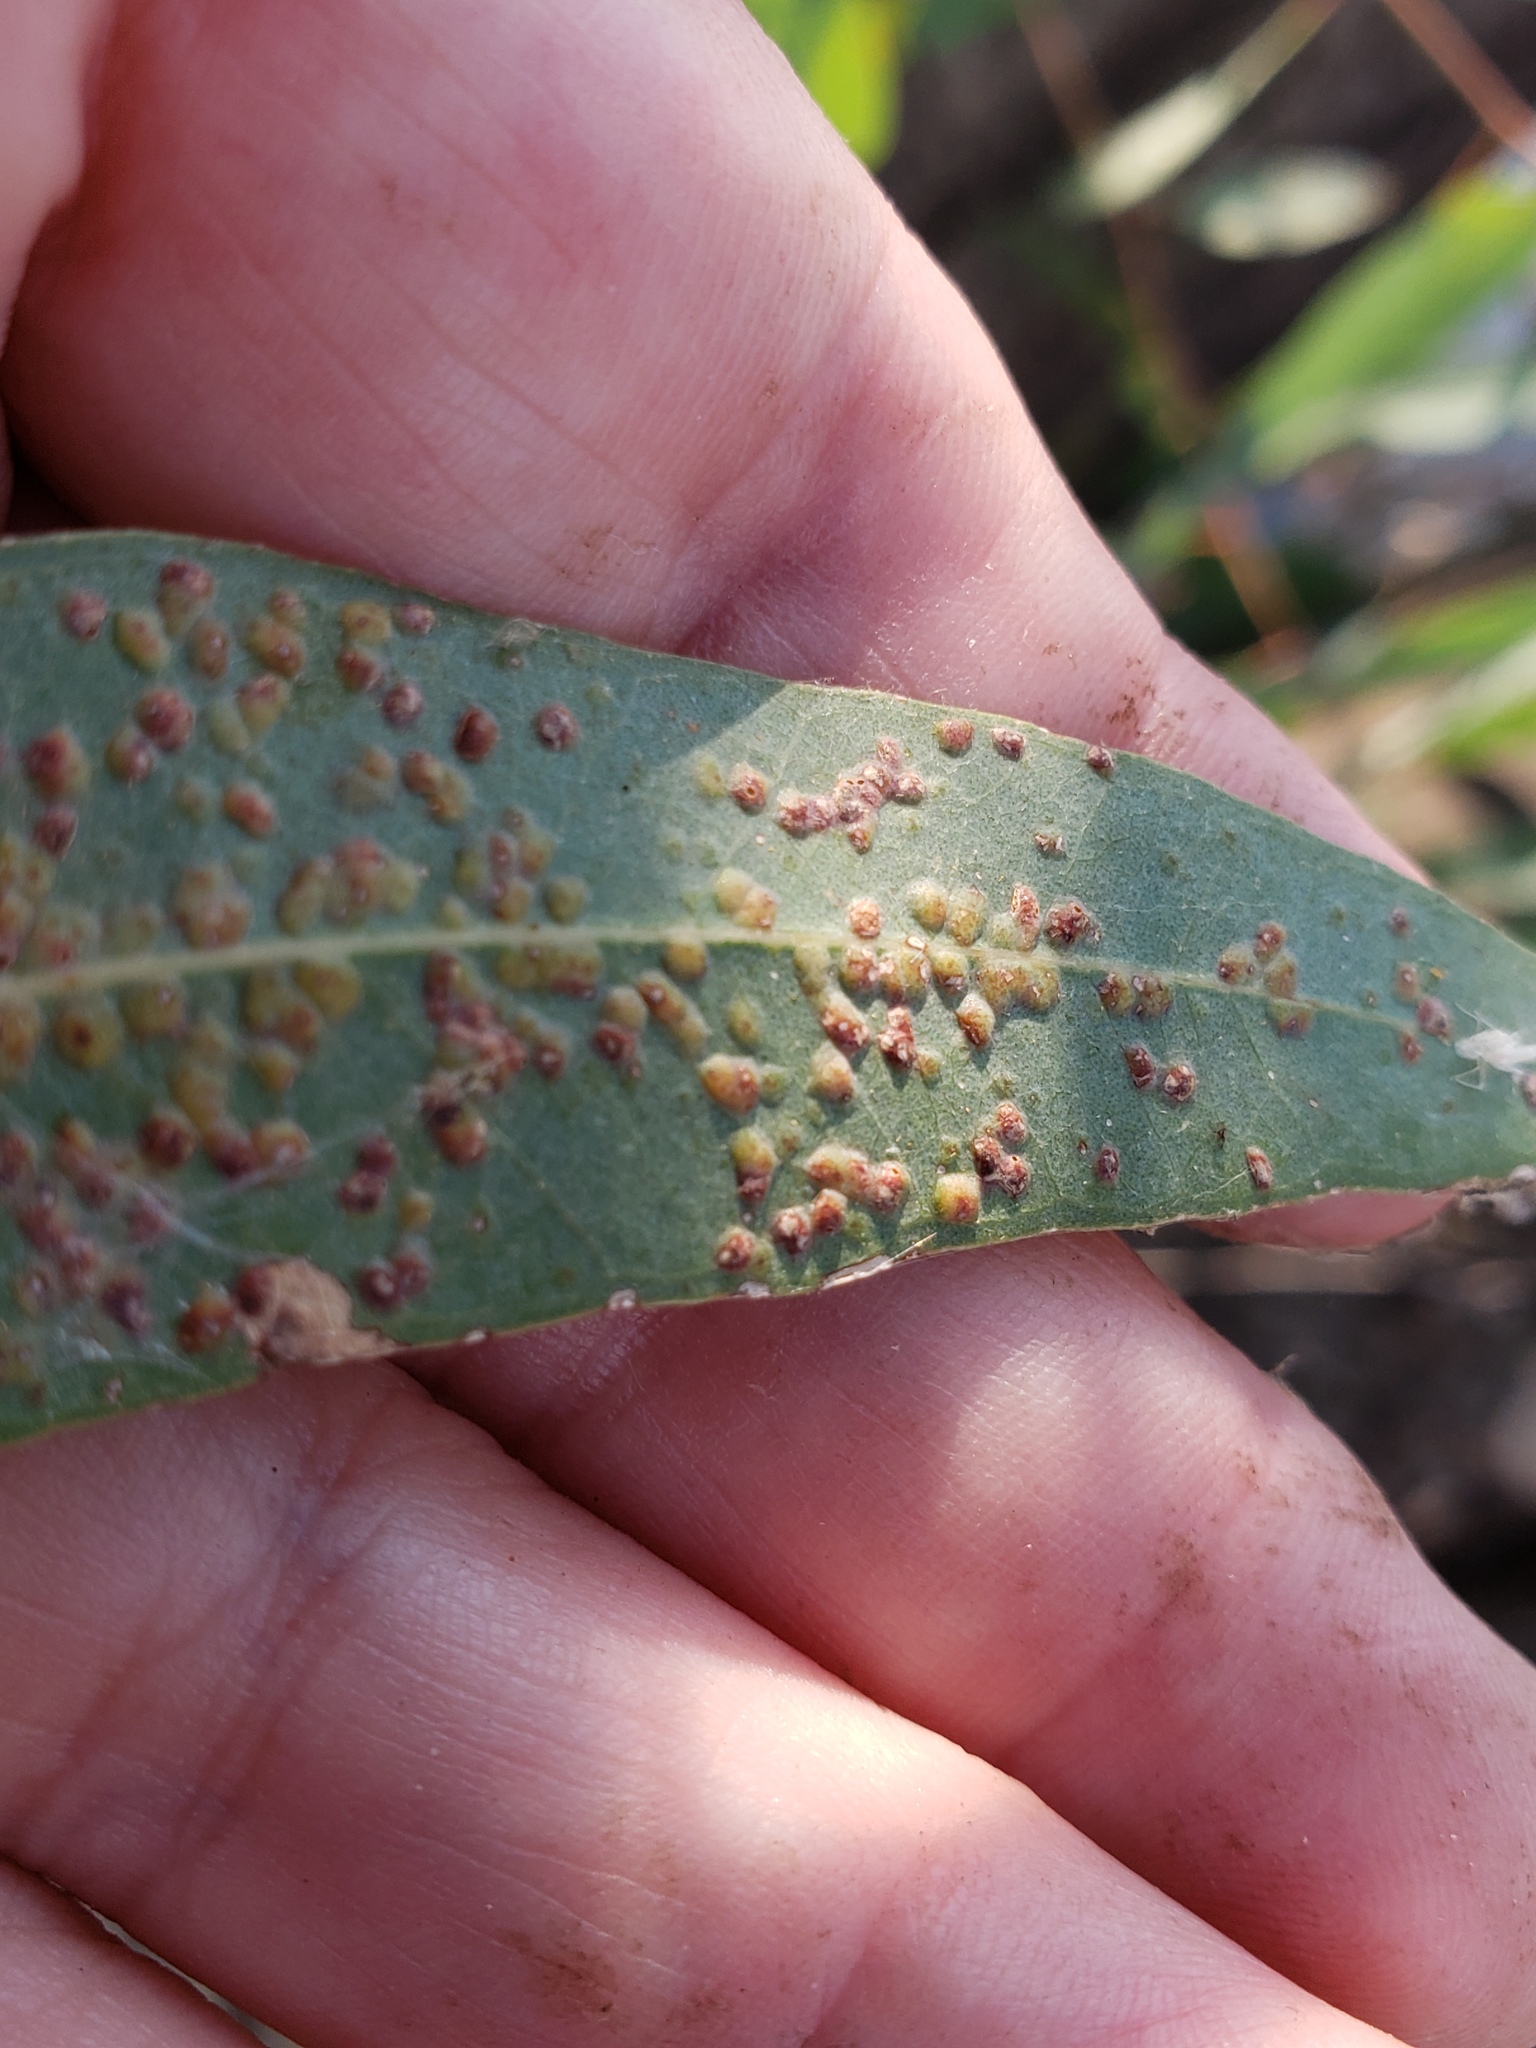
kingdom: Animalia
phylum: Arthropoda
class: Insecta
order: Hymenoptera
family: Eulophidae
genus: Ophelimus
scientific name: Ophelimus maskelli
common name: Gall wasp
